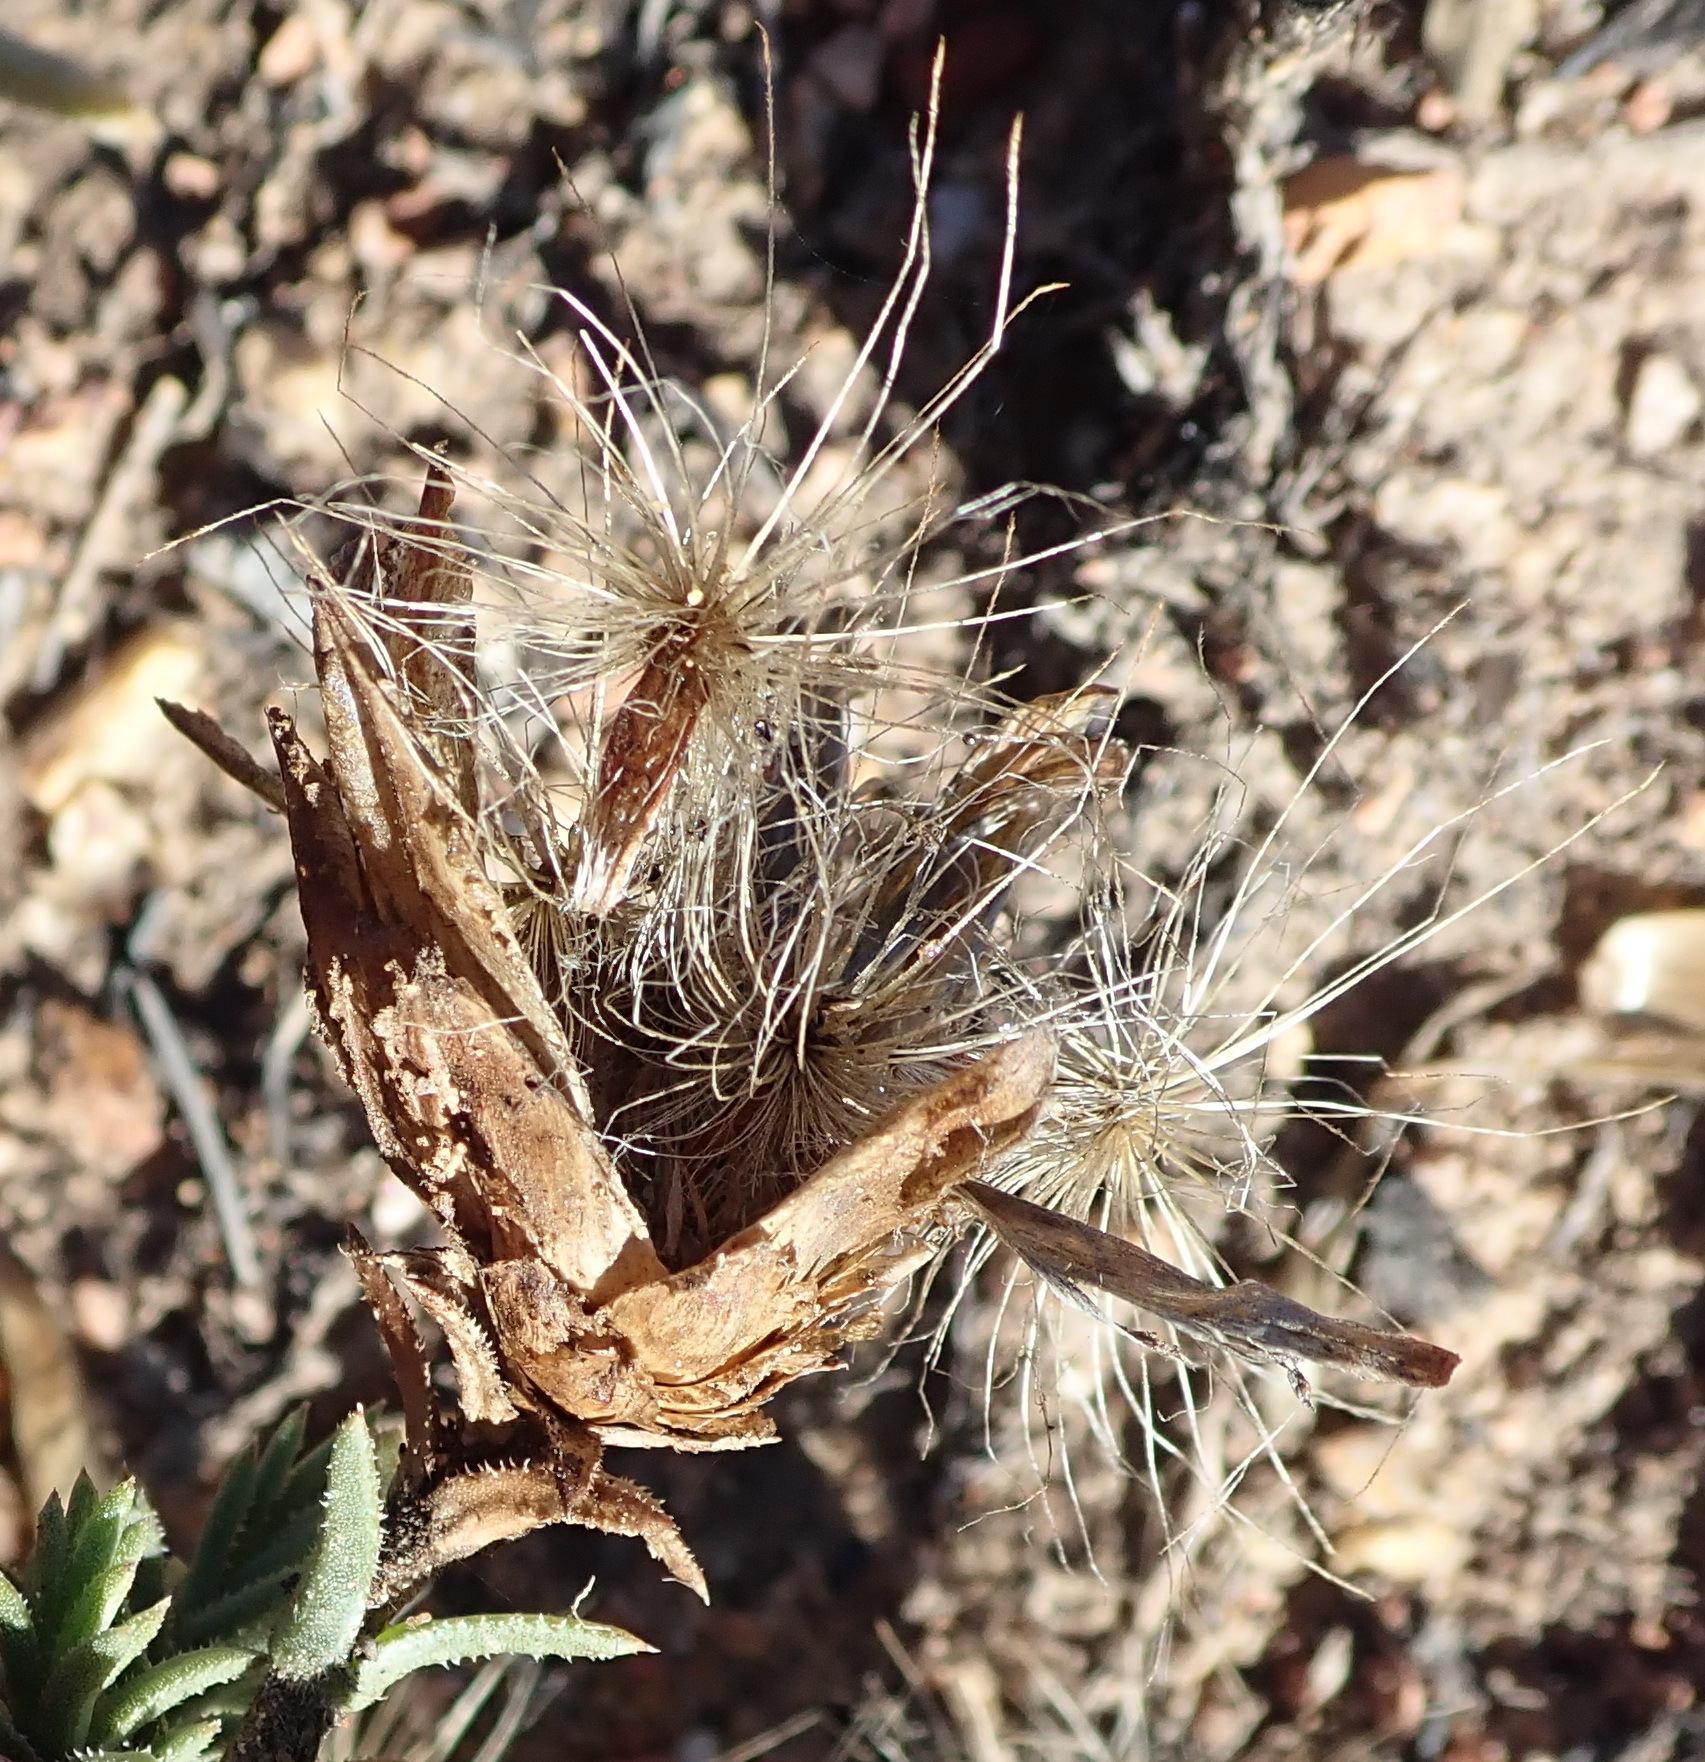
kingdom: Plantae
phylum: Tracheophyta
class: Magnoliopsida
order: Asterales
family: Asteraceae
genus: Pteronia
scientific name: Pteronia staehelinoides
